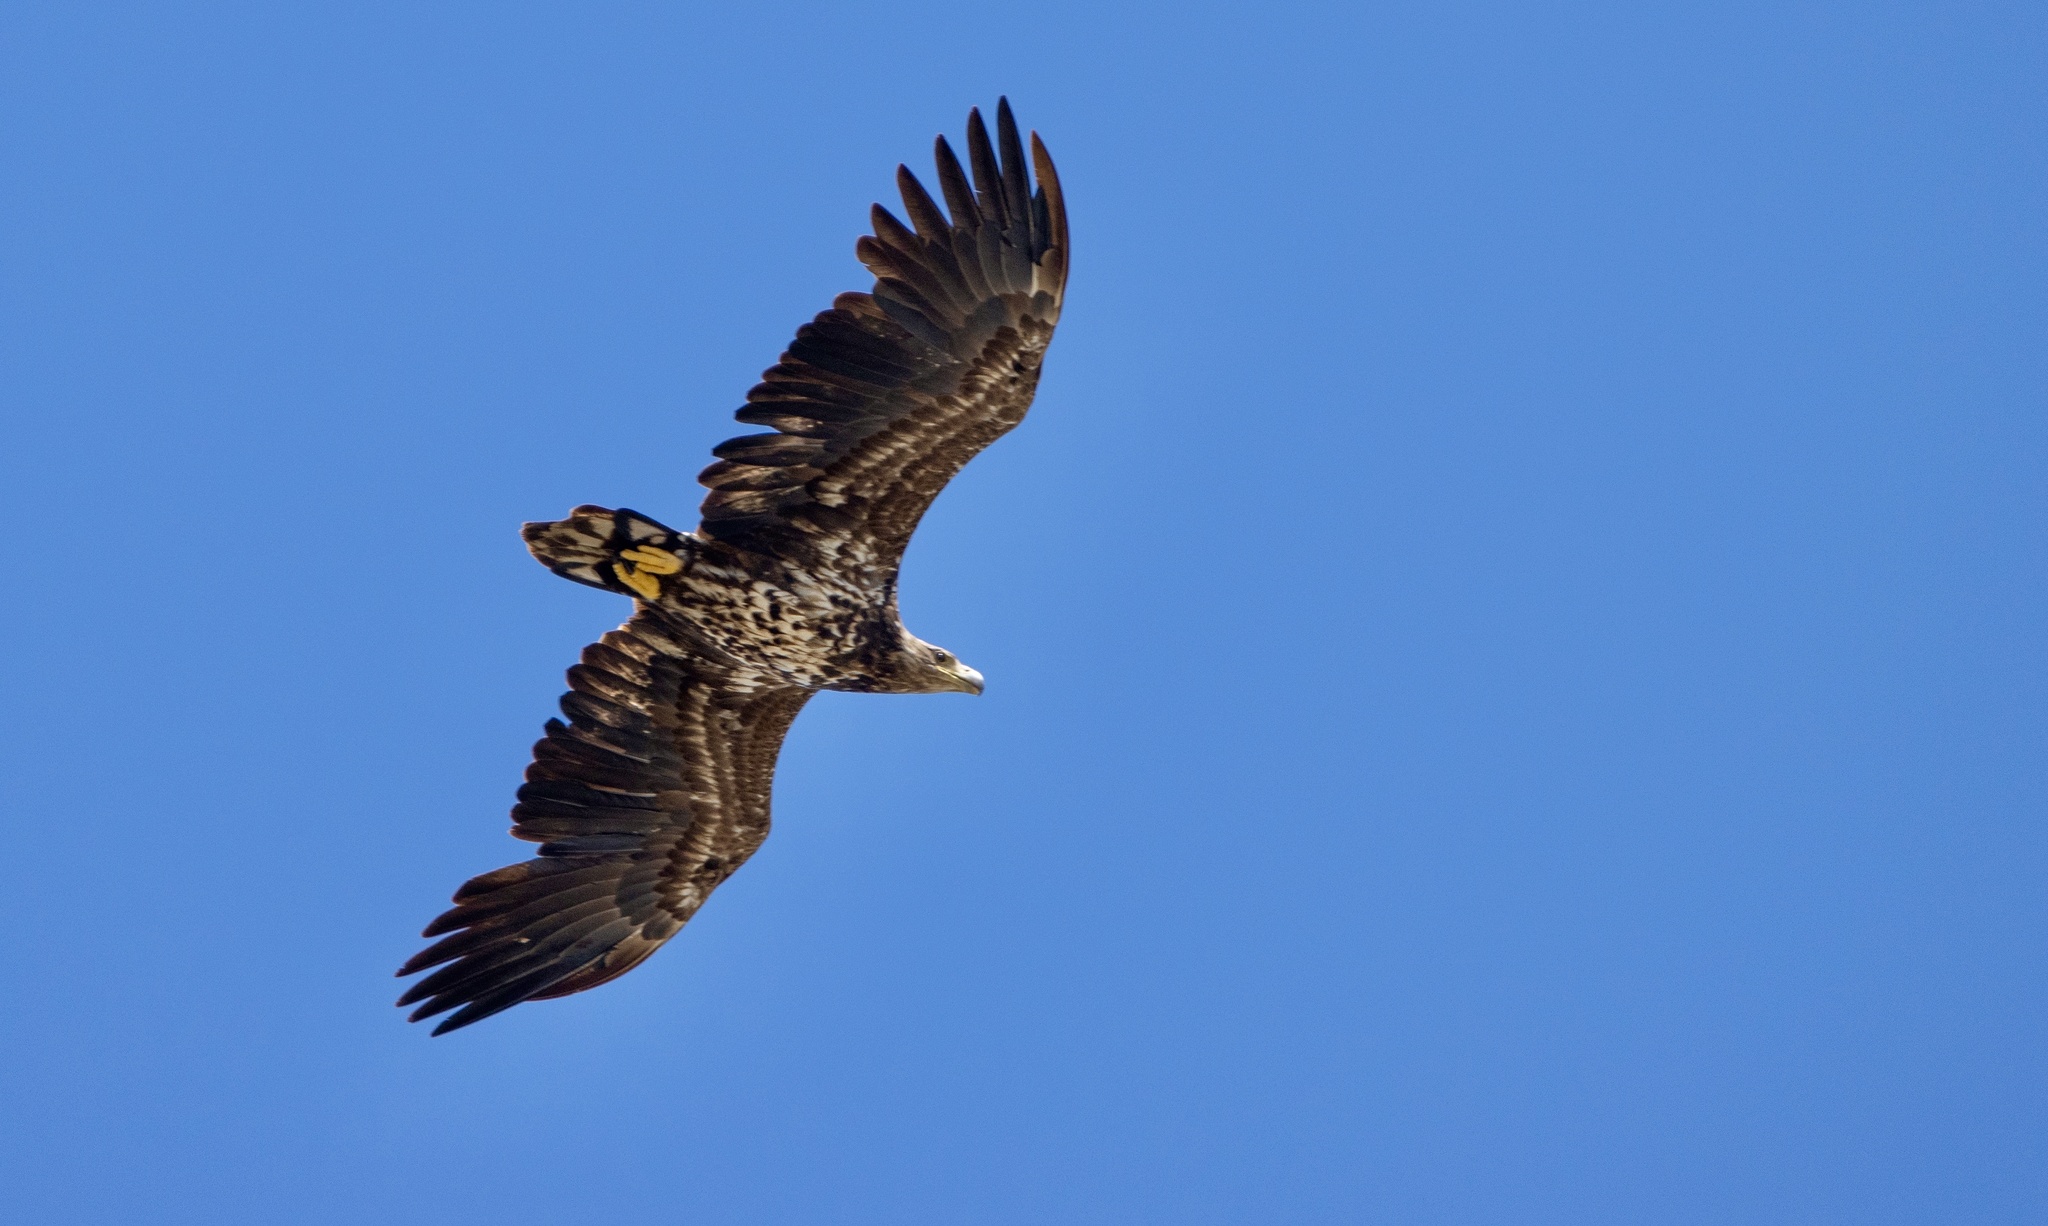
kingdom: Animalia
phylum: Chordata
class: Aves
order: Accipitriformes
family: Accipitridae
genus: Haliaeetus
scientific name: Haliaeetus albicilla
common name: White-tailed eagle
